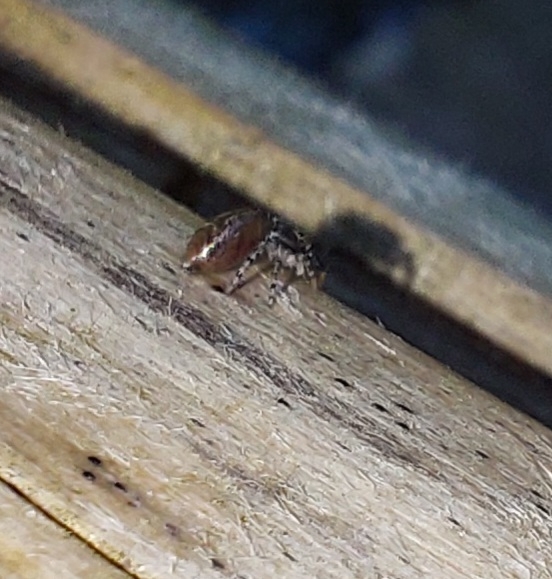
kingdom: Animalia
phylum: Arthropoda
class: Arachnida
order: Araneae
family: Salticidae
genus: Marpissa
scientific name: Marpissa muscosa
